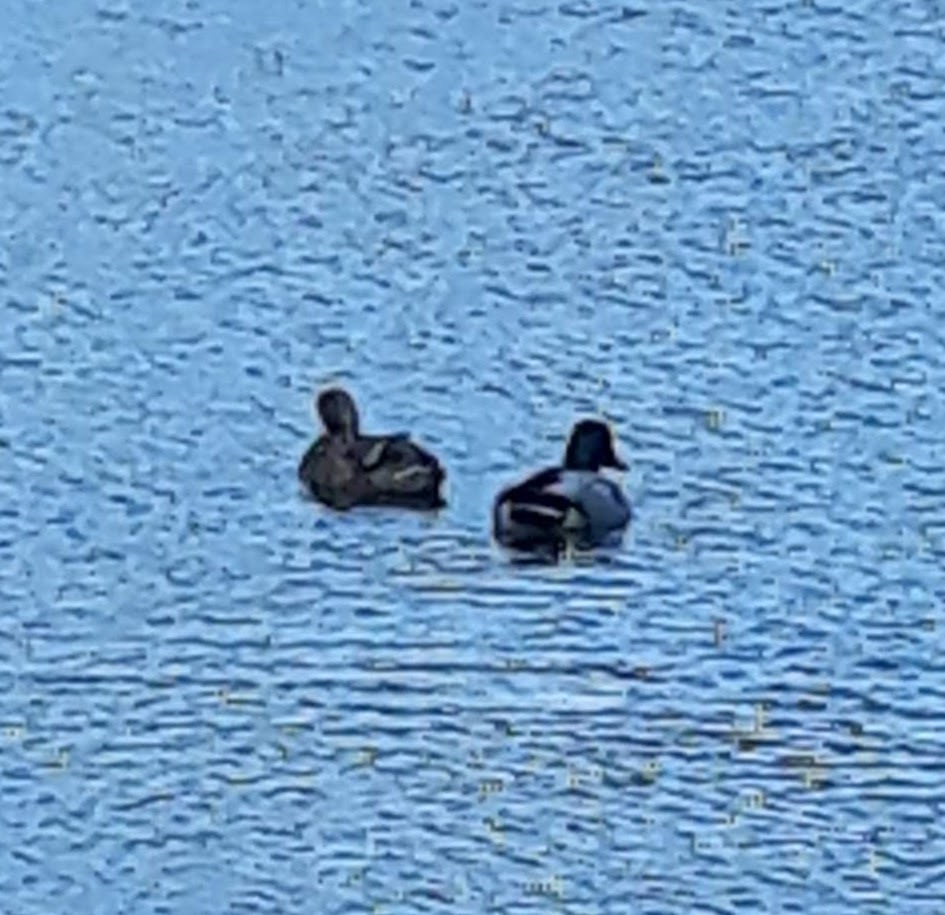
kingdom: Animalia
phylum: Chordata
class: Aves
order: Anseriformes
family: Anatidae
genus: Anas
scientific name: Anas platyrhynchos
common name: Mallard
